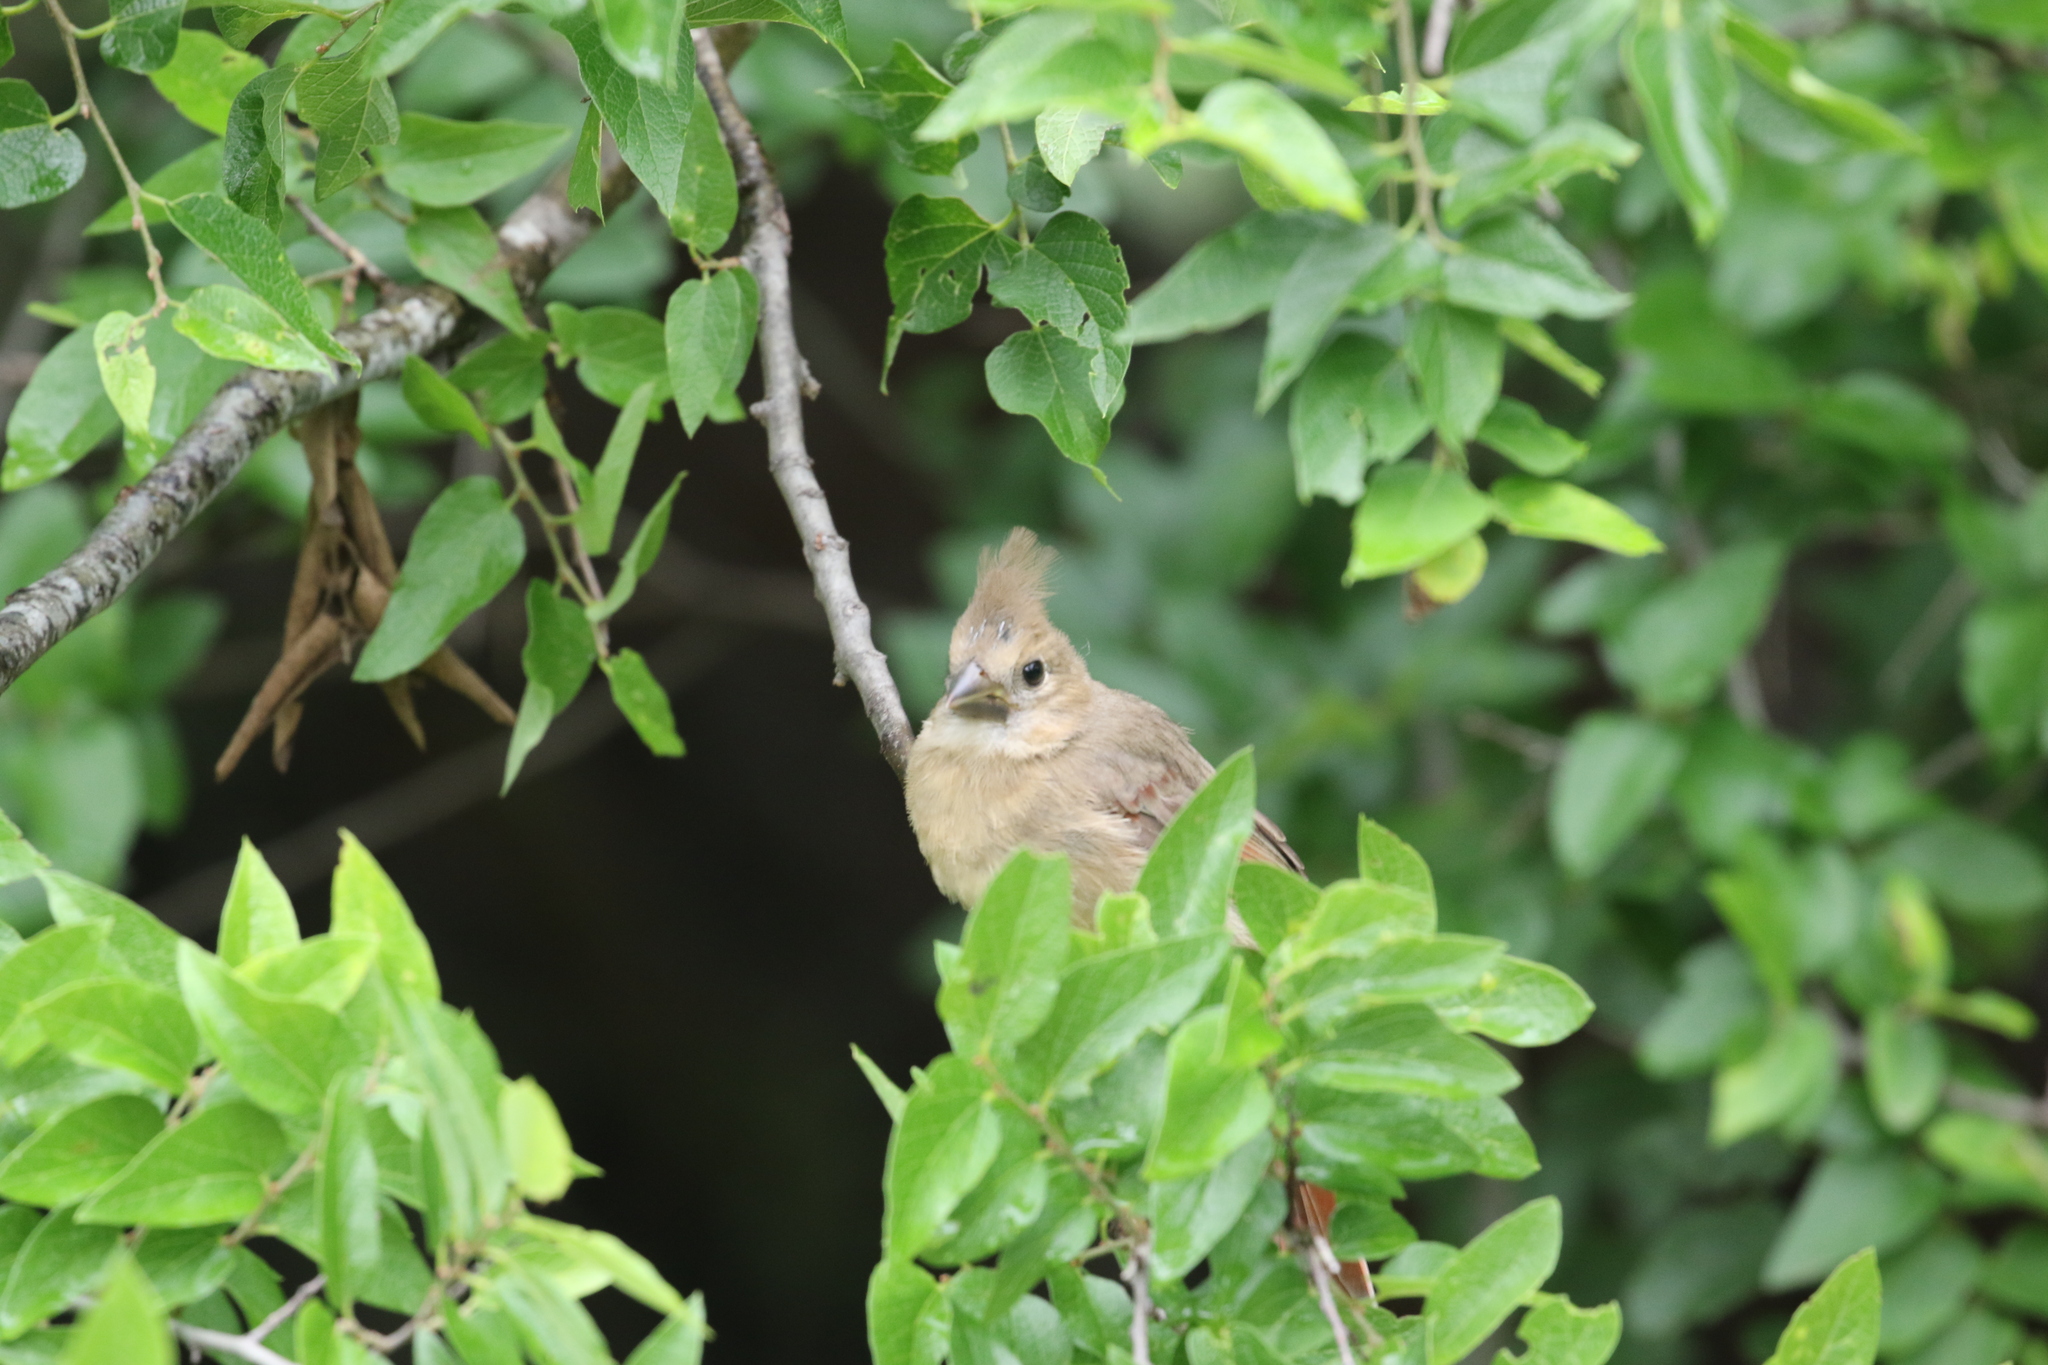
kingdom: Animalia
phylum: Chordata
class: Aves
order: Passeriformes
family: Cardinalidae
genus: Cardinalis
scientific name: Cardinalis cardinalis
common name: Northern cardinal
